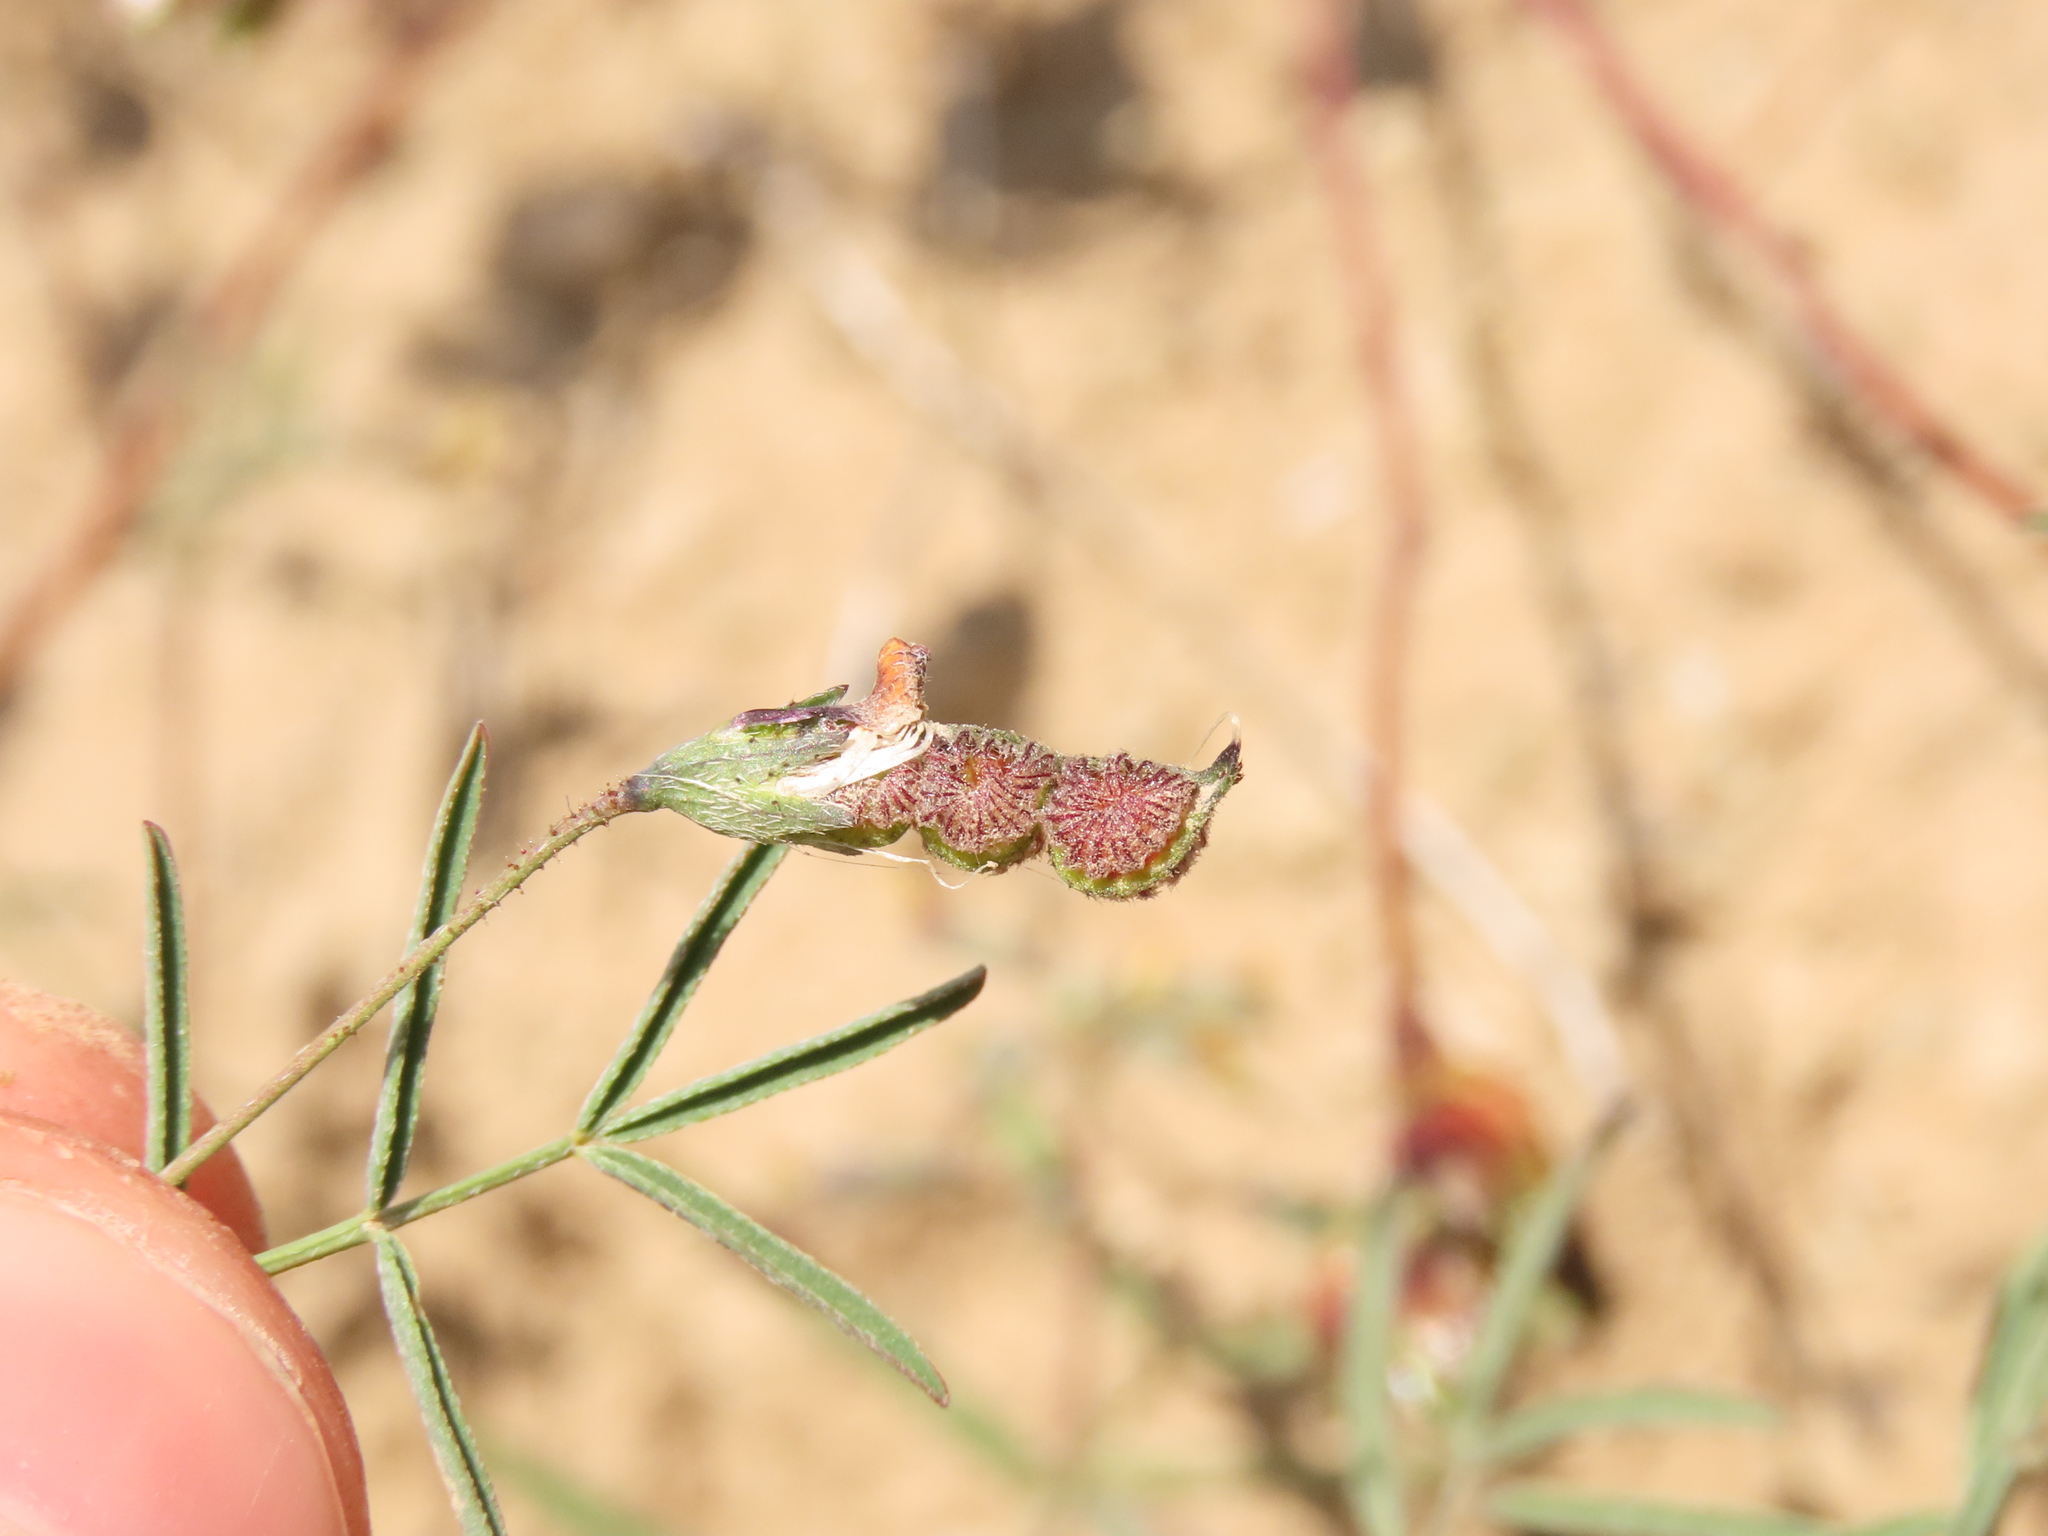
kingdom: Plantae
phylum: Tracheophyta
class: Magnoliopsida
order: Fabales
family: Fabaceae
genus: Adesmia
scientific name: Adesmia filifolia
